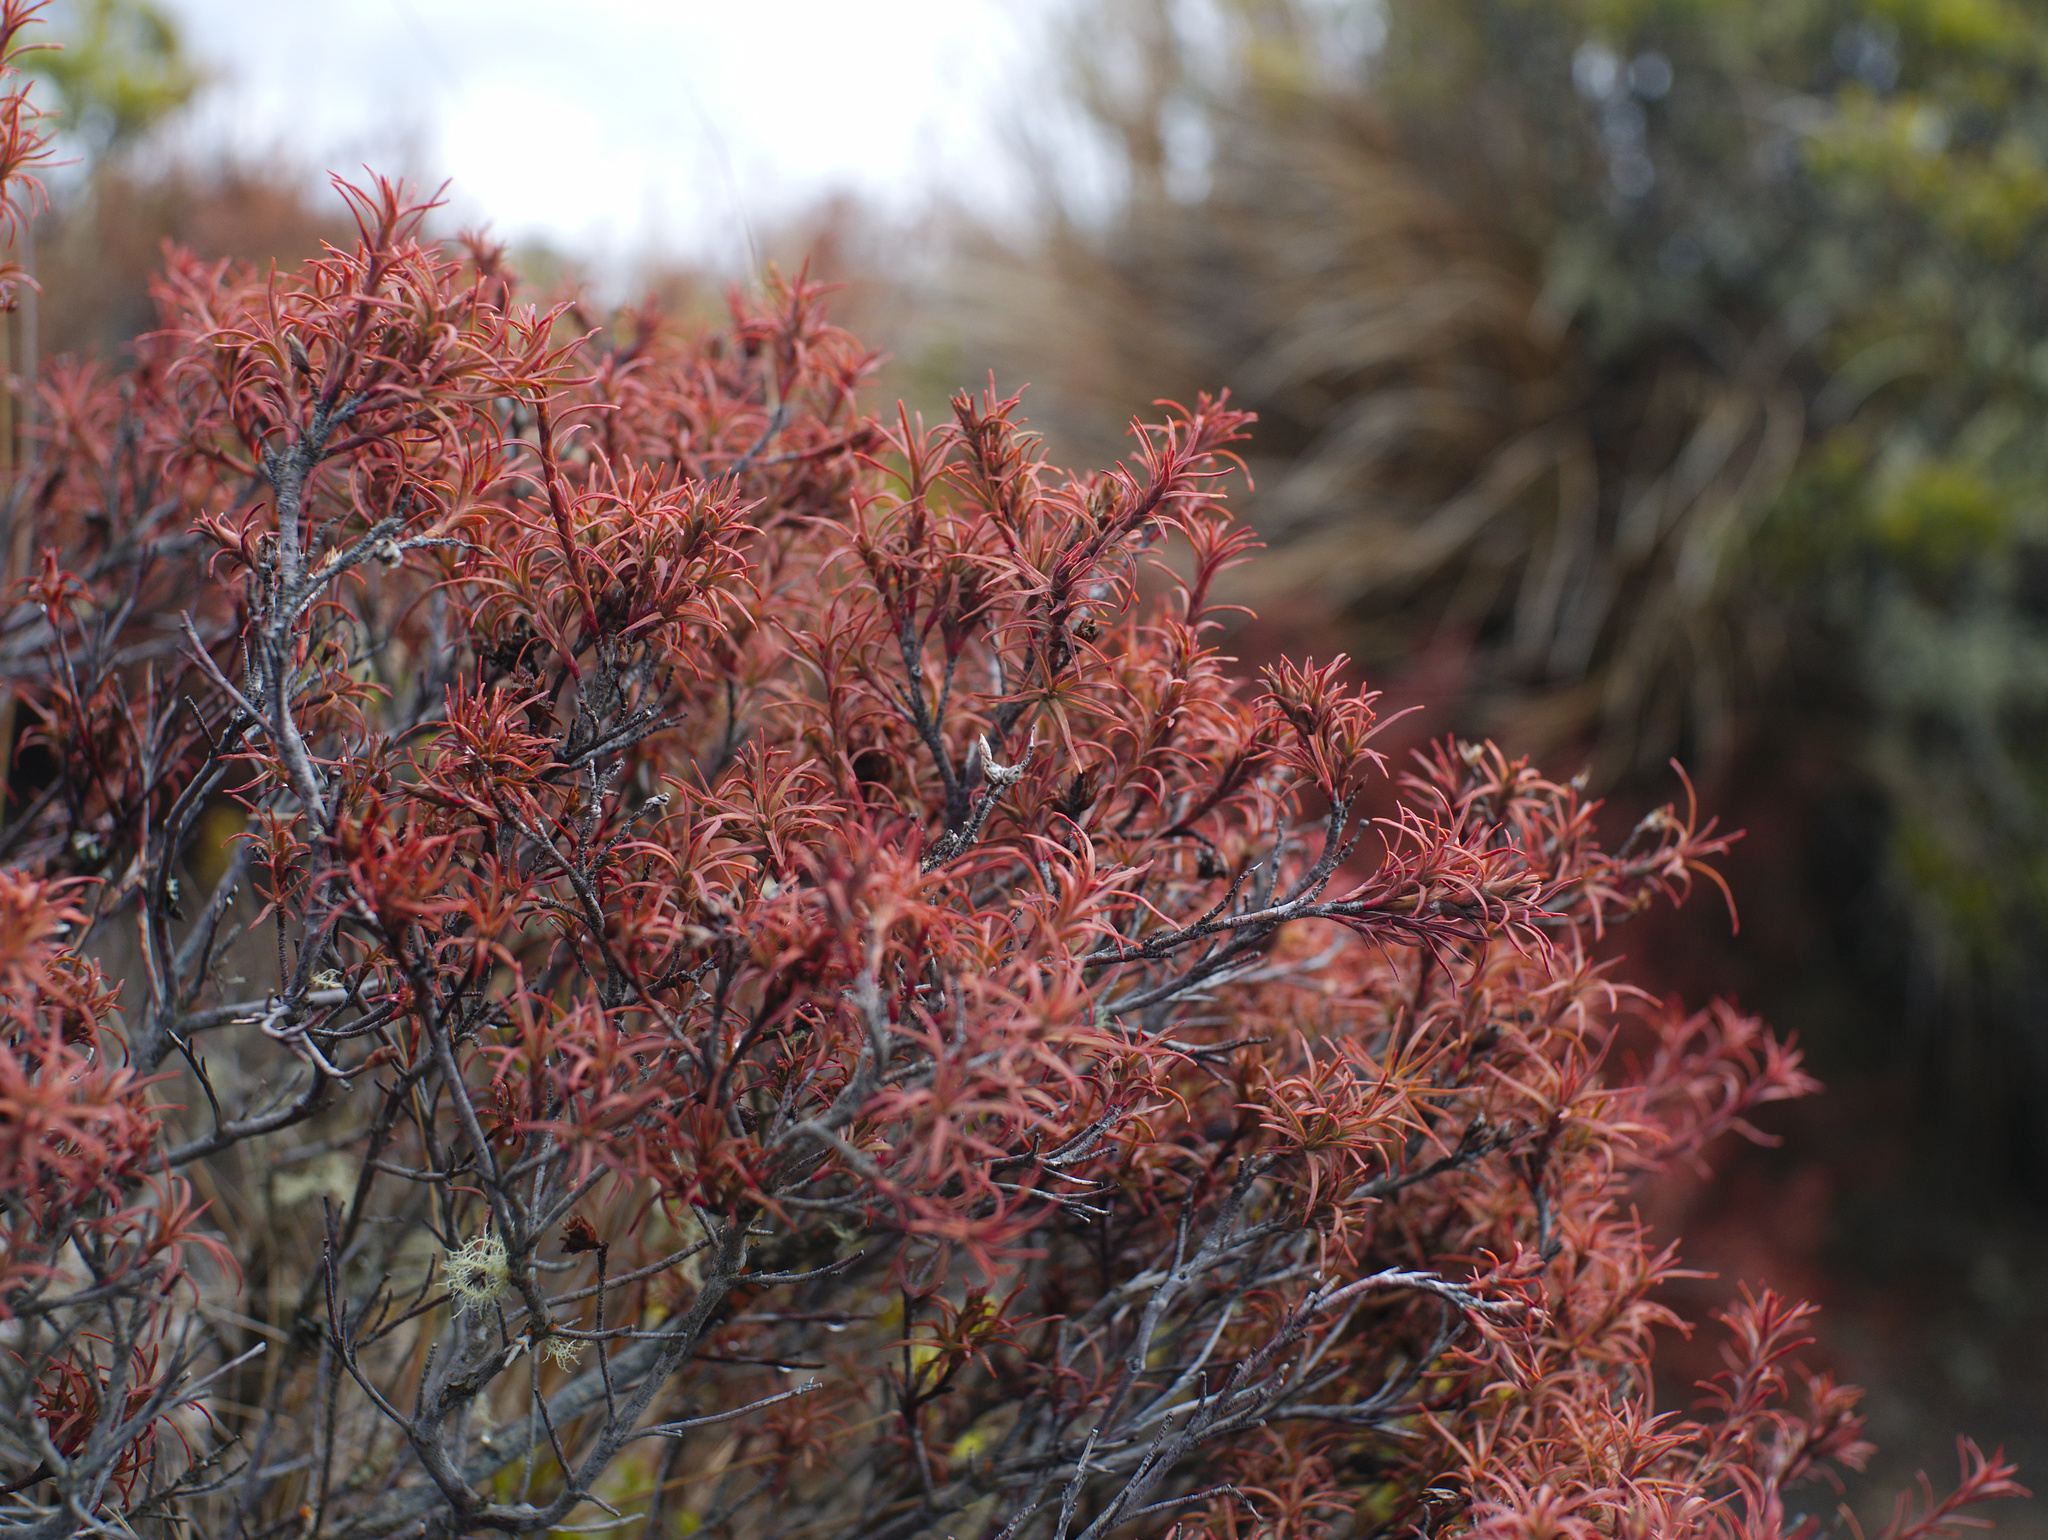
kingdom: Plantae
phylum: Tracheophyta
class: Magnoliopsida
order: Ericales
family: Ericaceae
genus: Dracophyllum
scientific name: Dracophyllum recurvum
